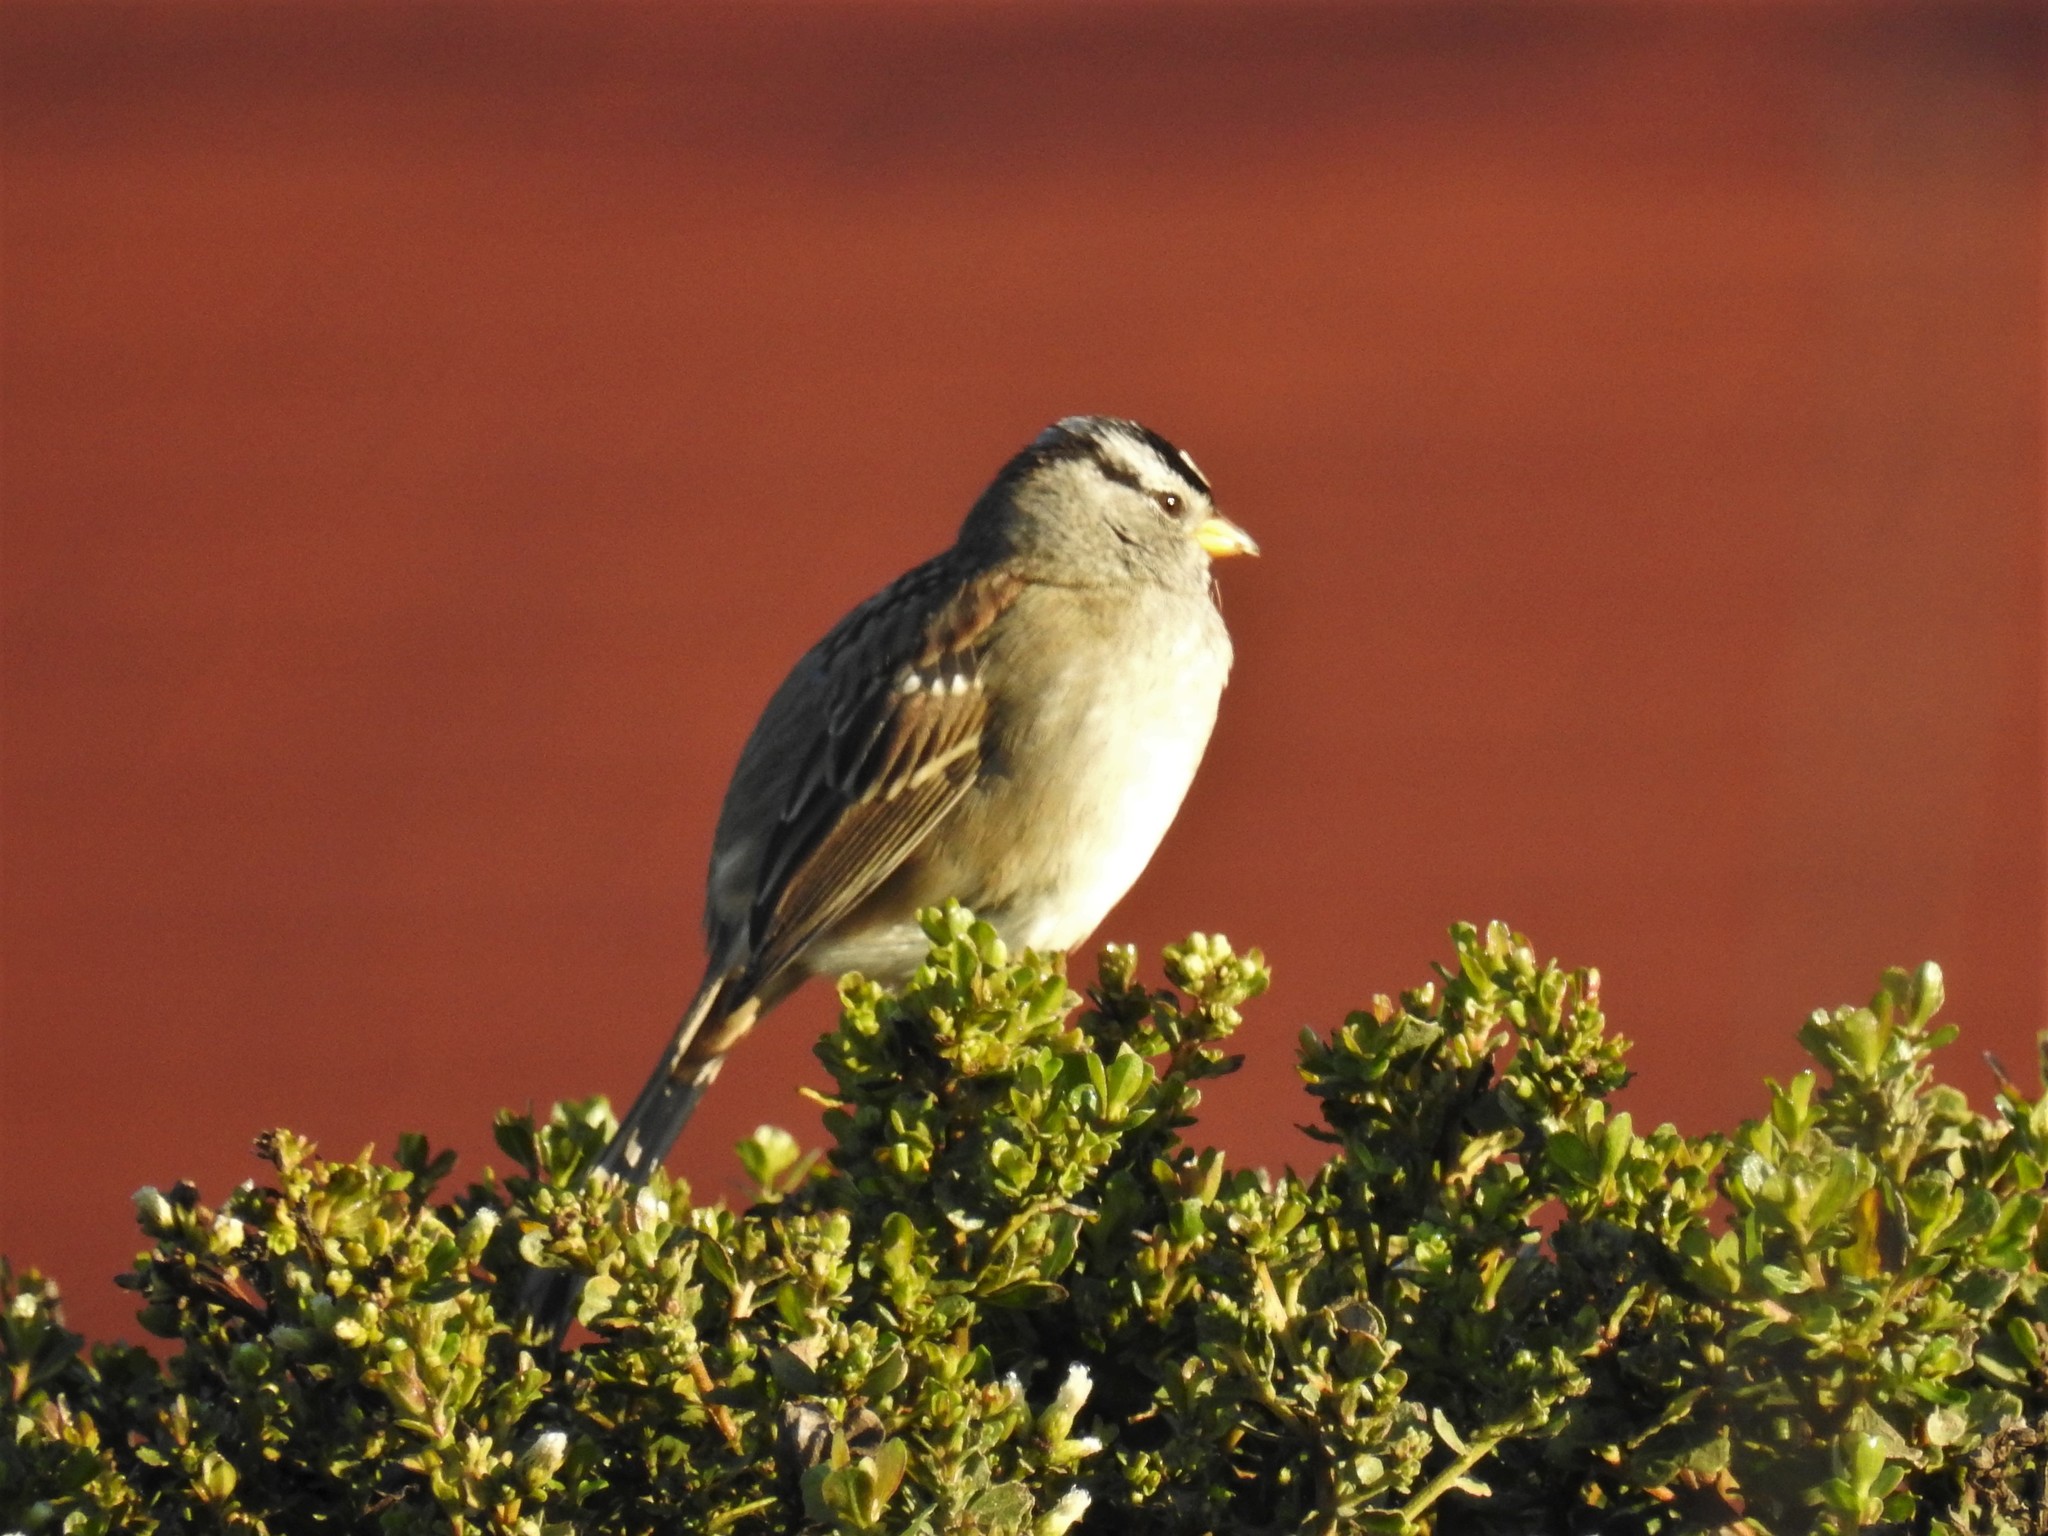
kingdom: Animalia
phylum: Chordata
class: Aves
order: Passeriformes
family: Passerellidae
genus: Zonotrichia
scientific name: Zonotrichia leucophrys
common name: White-crowned sparrow
